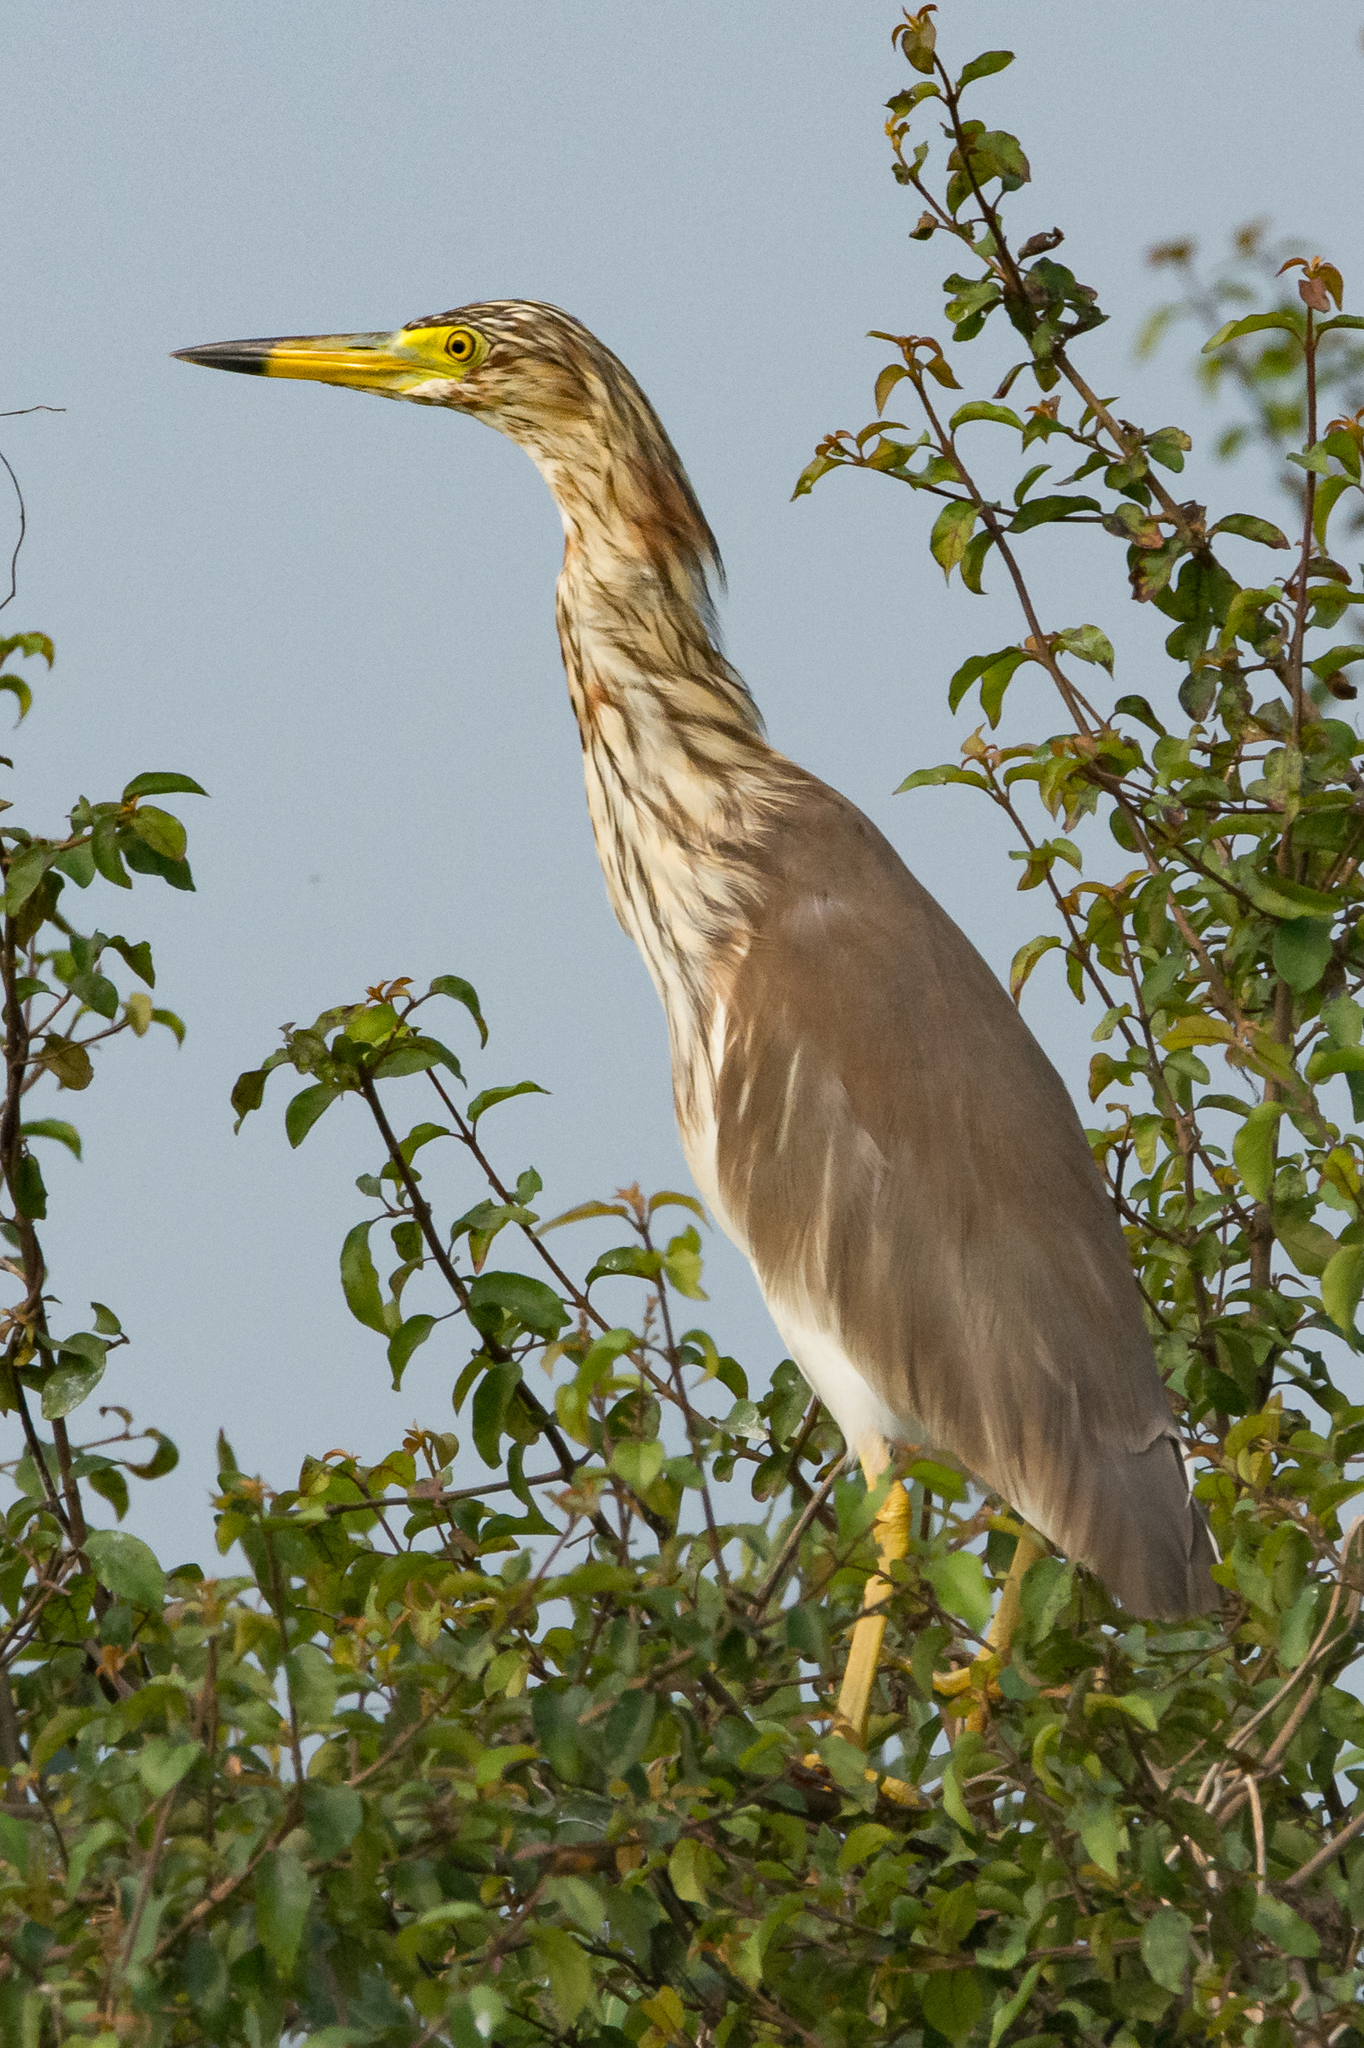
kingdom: Animalia
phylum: Chordata
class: Aves
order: Pelecaniformes
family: Ardeidae
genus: Ardeola
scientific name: Ardeola bacchus
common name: Chinese pond heron
